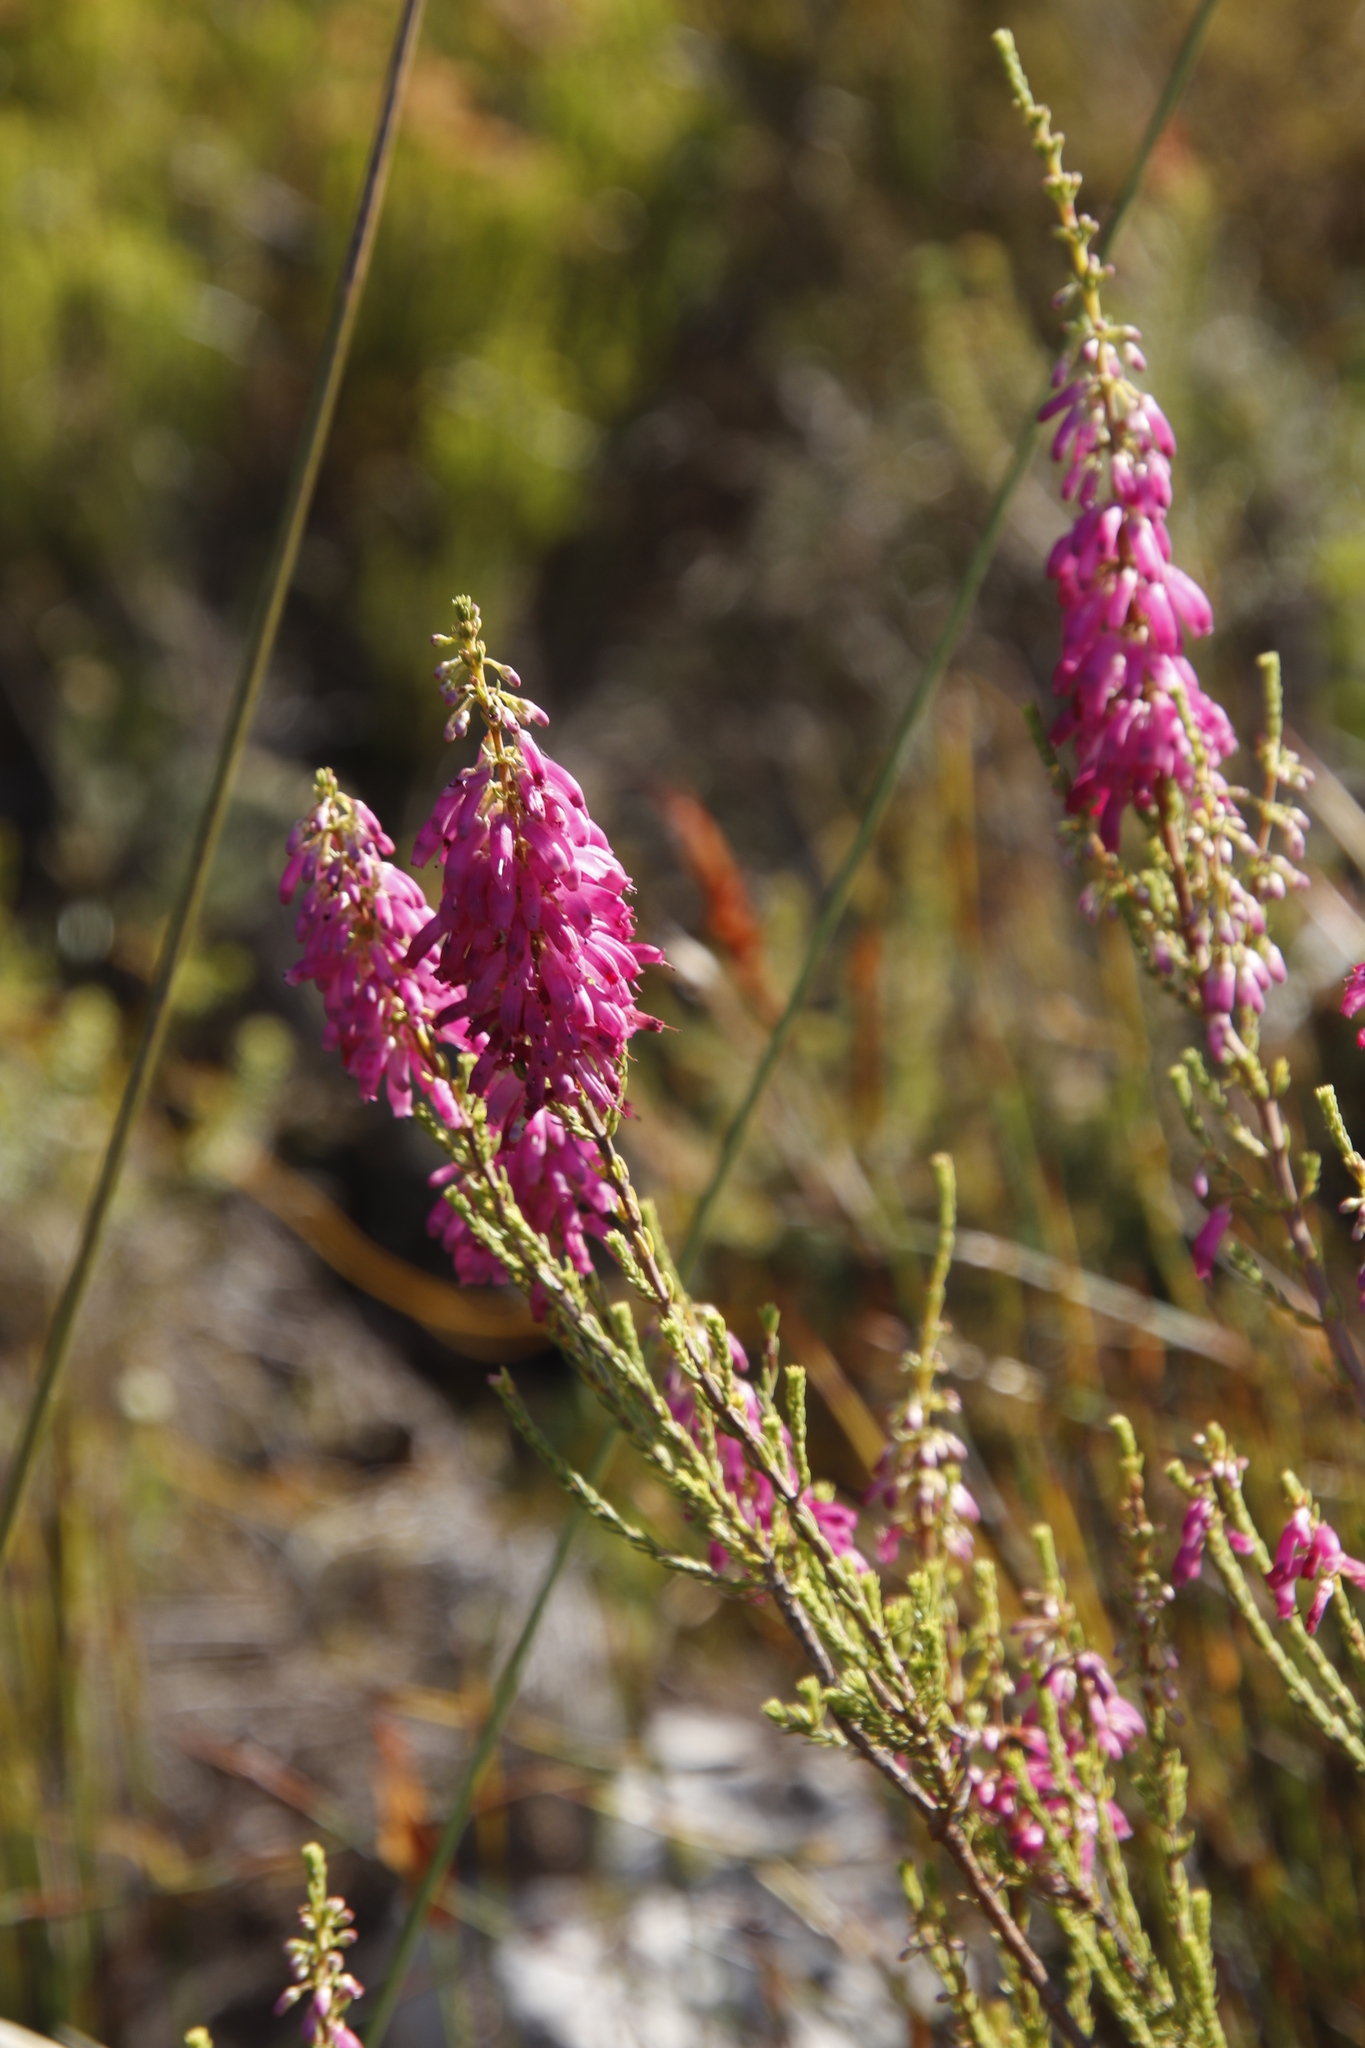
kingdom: Plantae
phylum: Tracheophyta
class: Magnoliopsida
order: Ericales
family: Ericaceae
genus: Erica
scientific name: Erica mammosa
